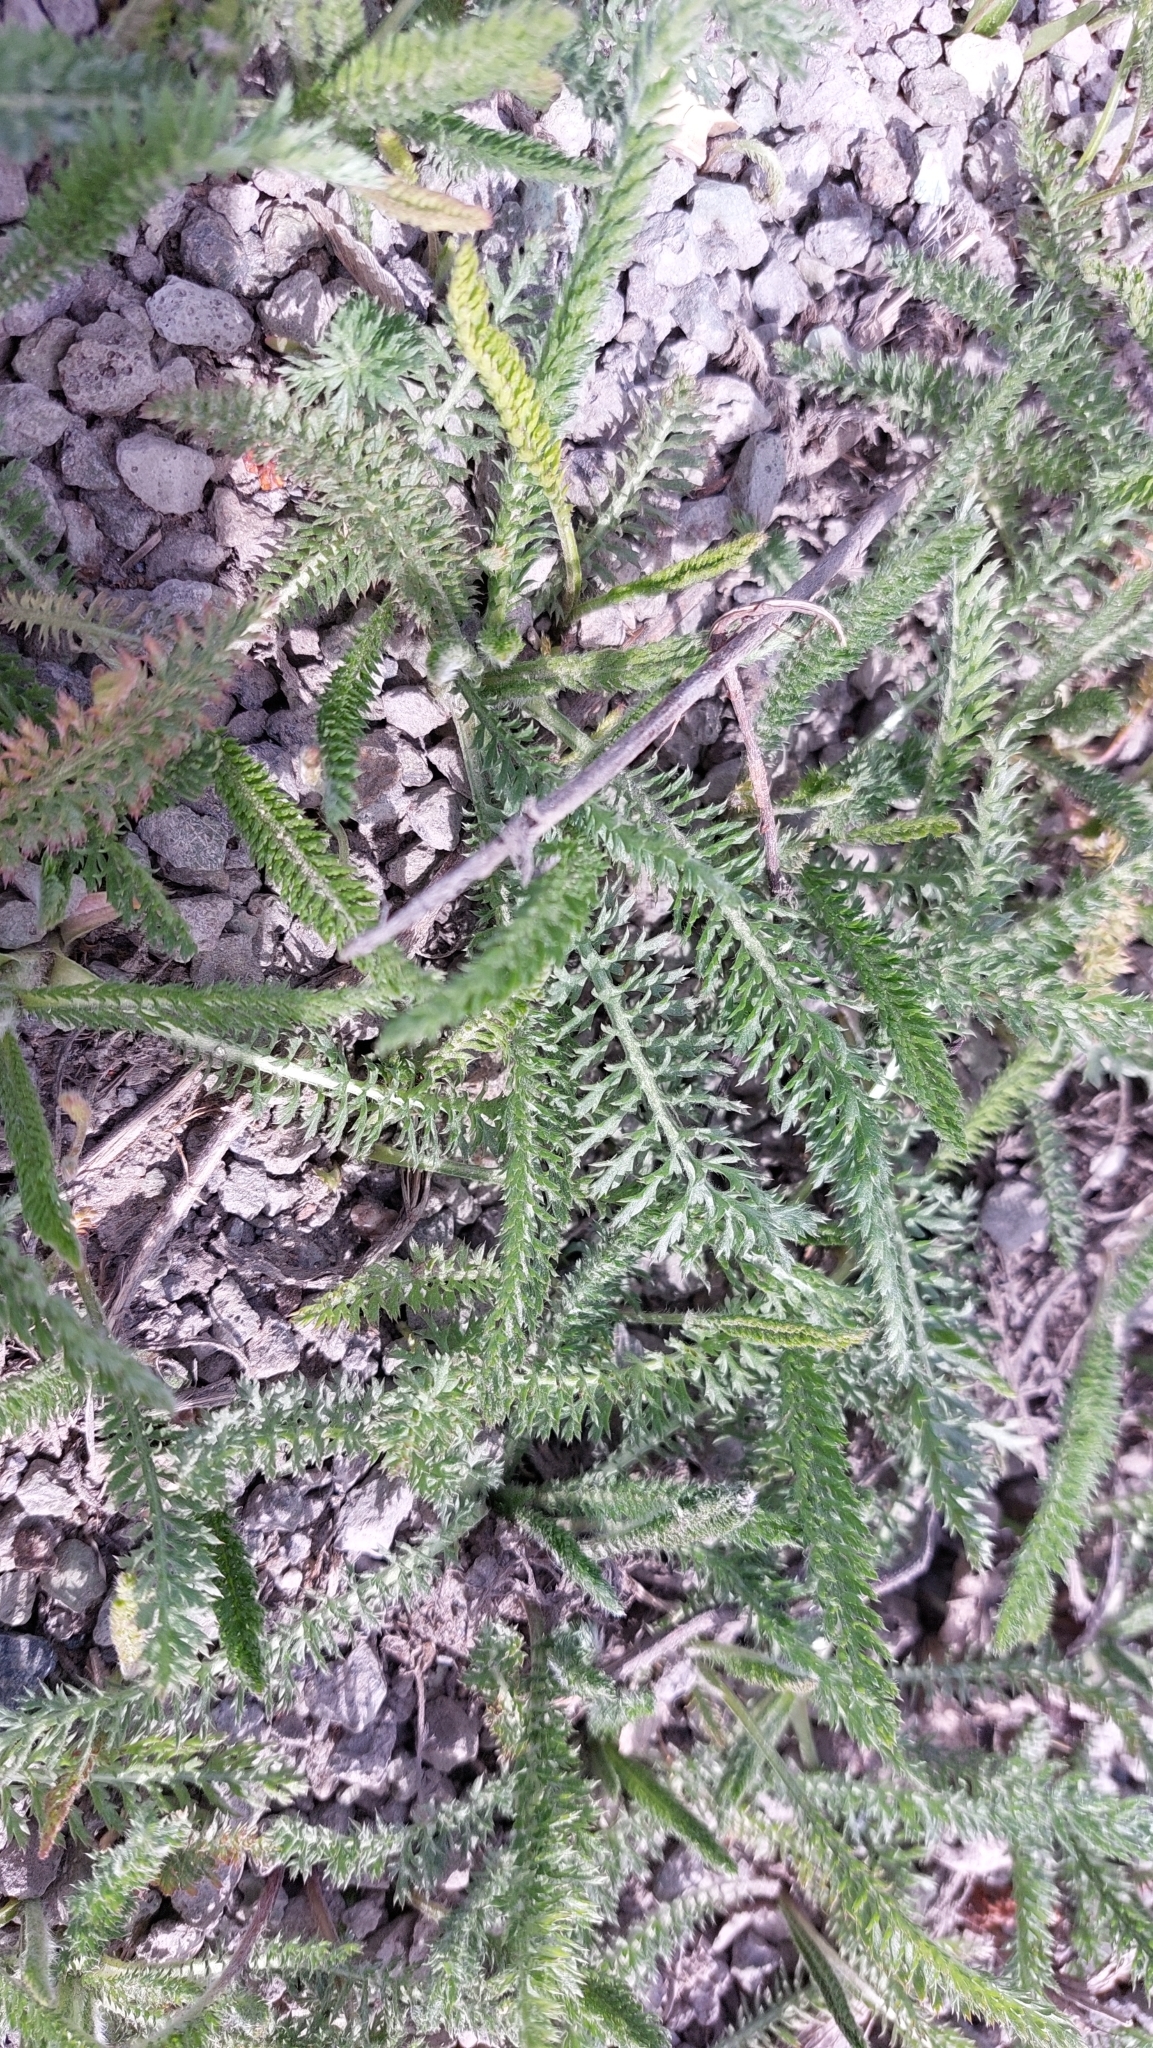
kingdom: Plantae
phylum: Tracheophyta
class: Magnoliopsida
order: Asterales
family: Asteraceae
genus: Achillea
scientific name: Achillea
